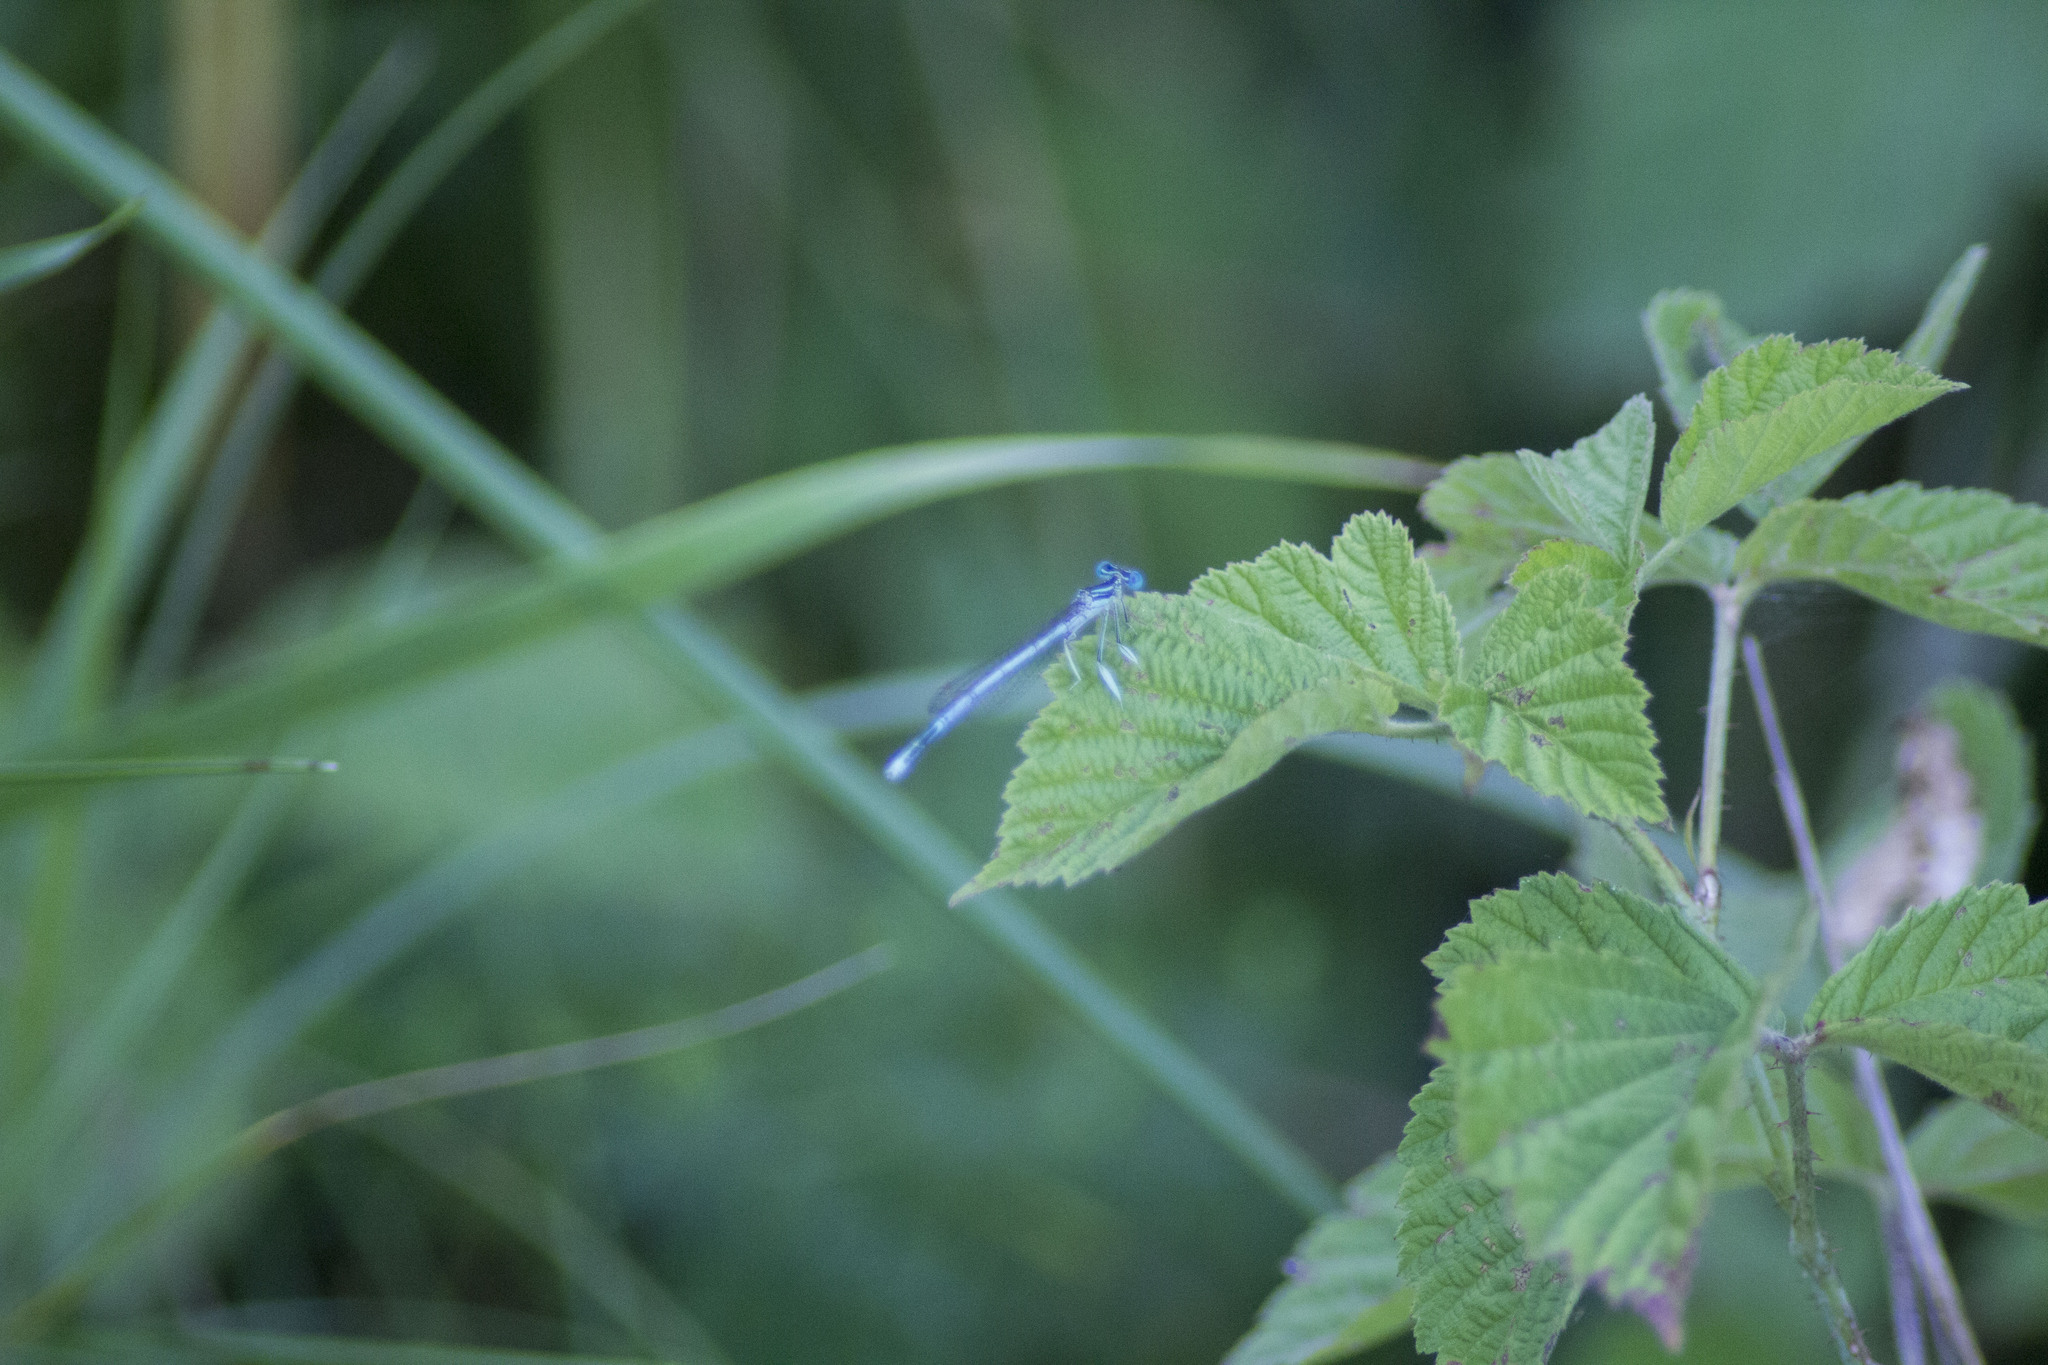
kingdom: Animalia
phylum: Arthropoda
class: Insecta
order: Odonata
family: Platycnemididae
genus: Platycnemis
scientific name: Platycnemis pennipes
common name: White-legged damselfly
